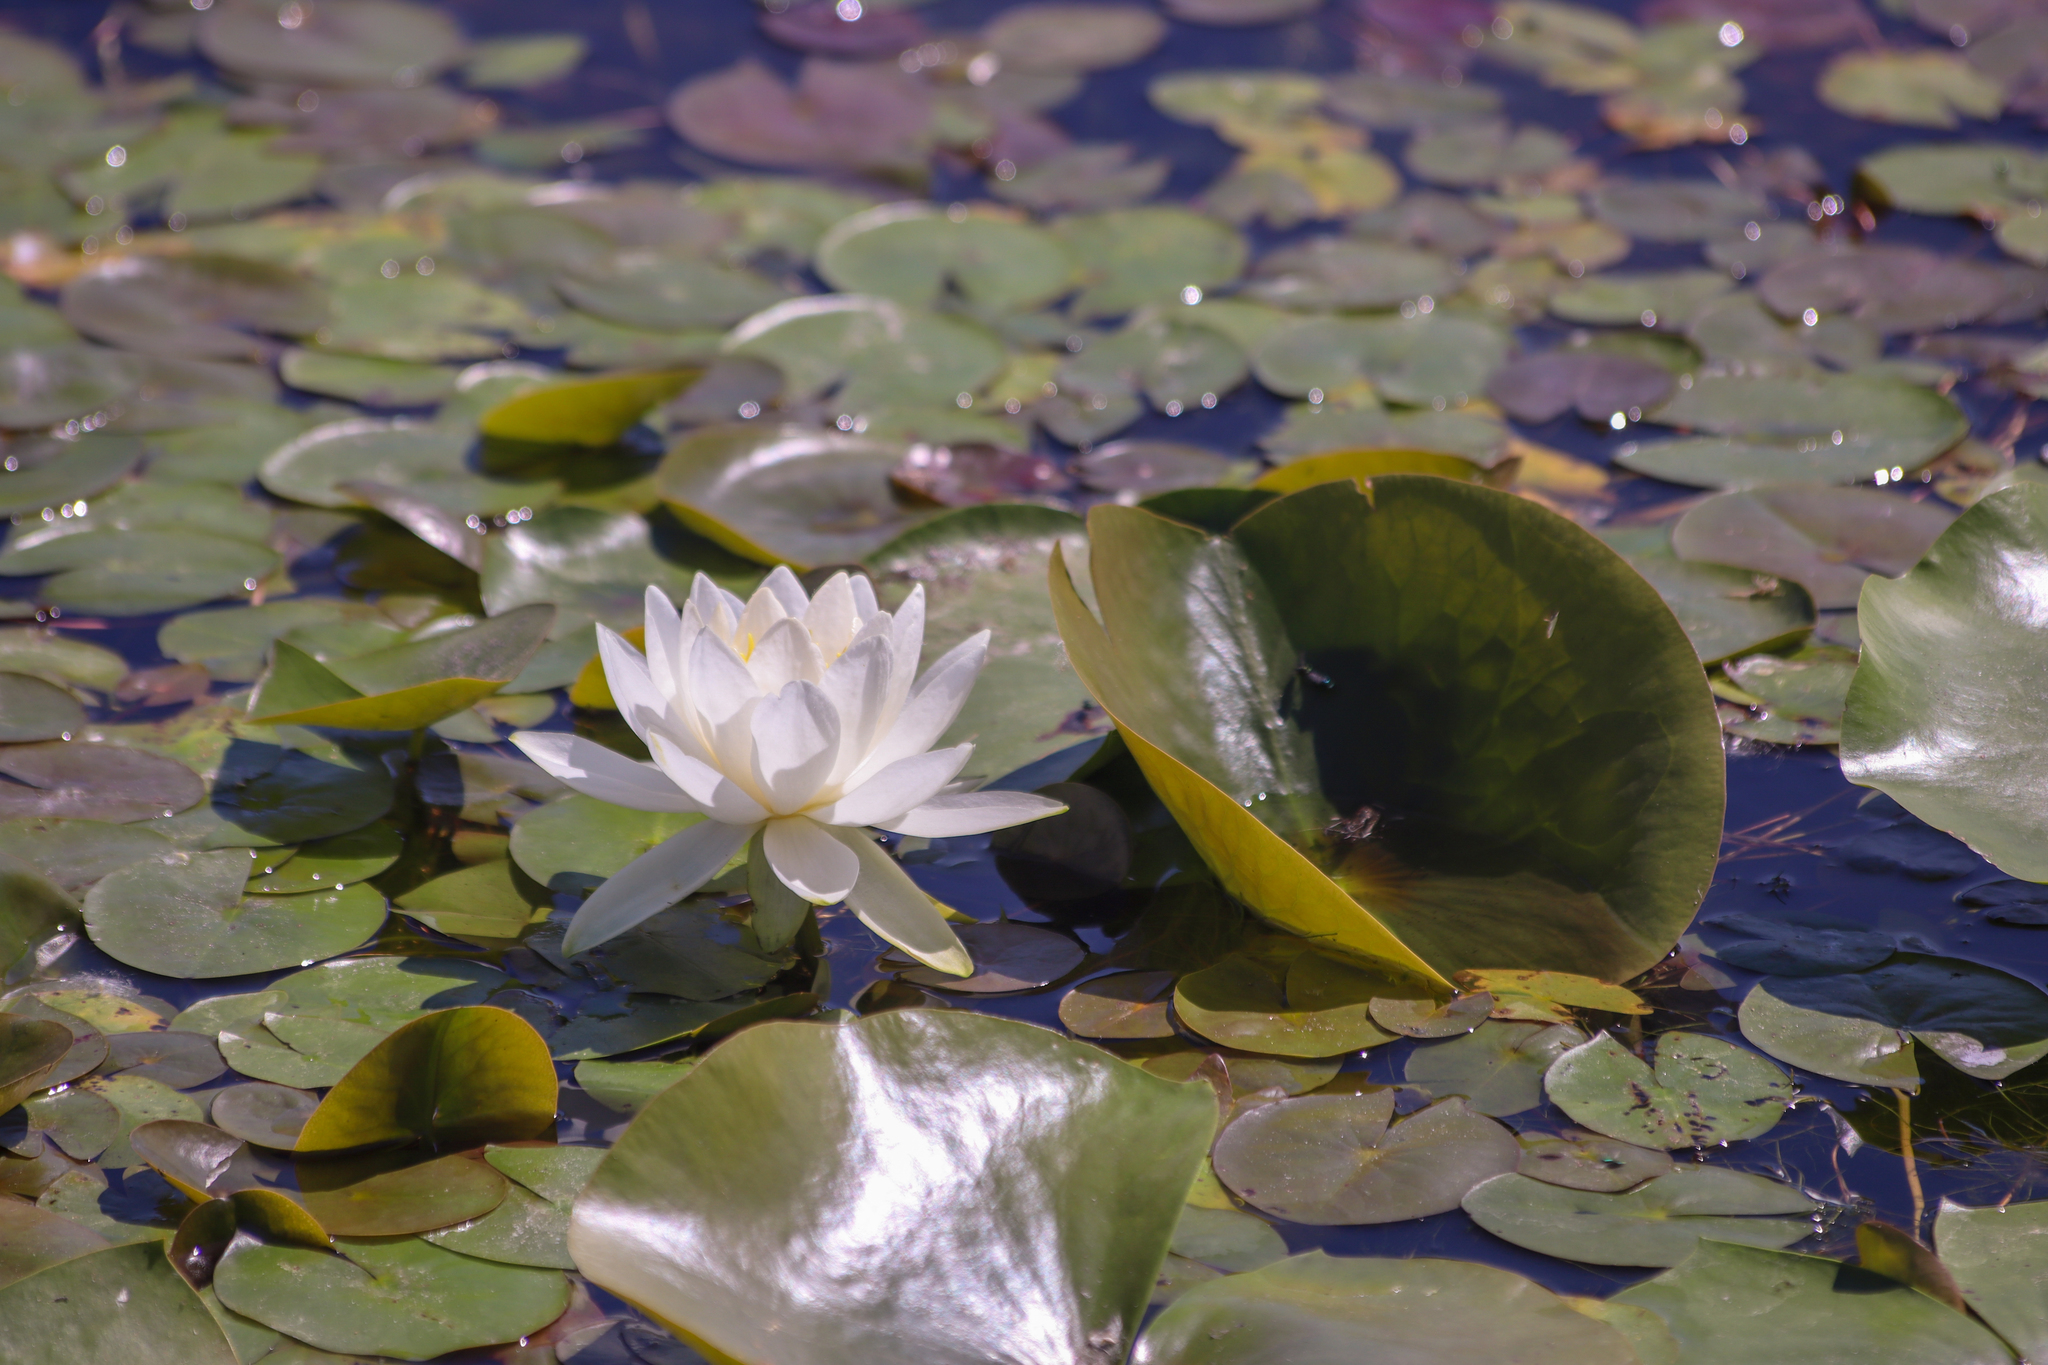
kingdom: Plantae
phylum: Tracheophyta
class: Magnoliopsida
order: Nymphaeales
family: Nymphaeaceae
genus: Nymphaea
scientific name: Nymphaea odorata
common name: Fragrant water-lily
